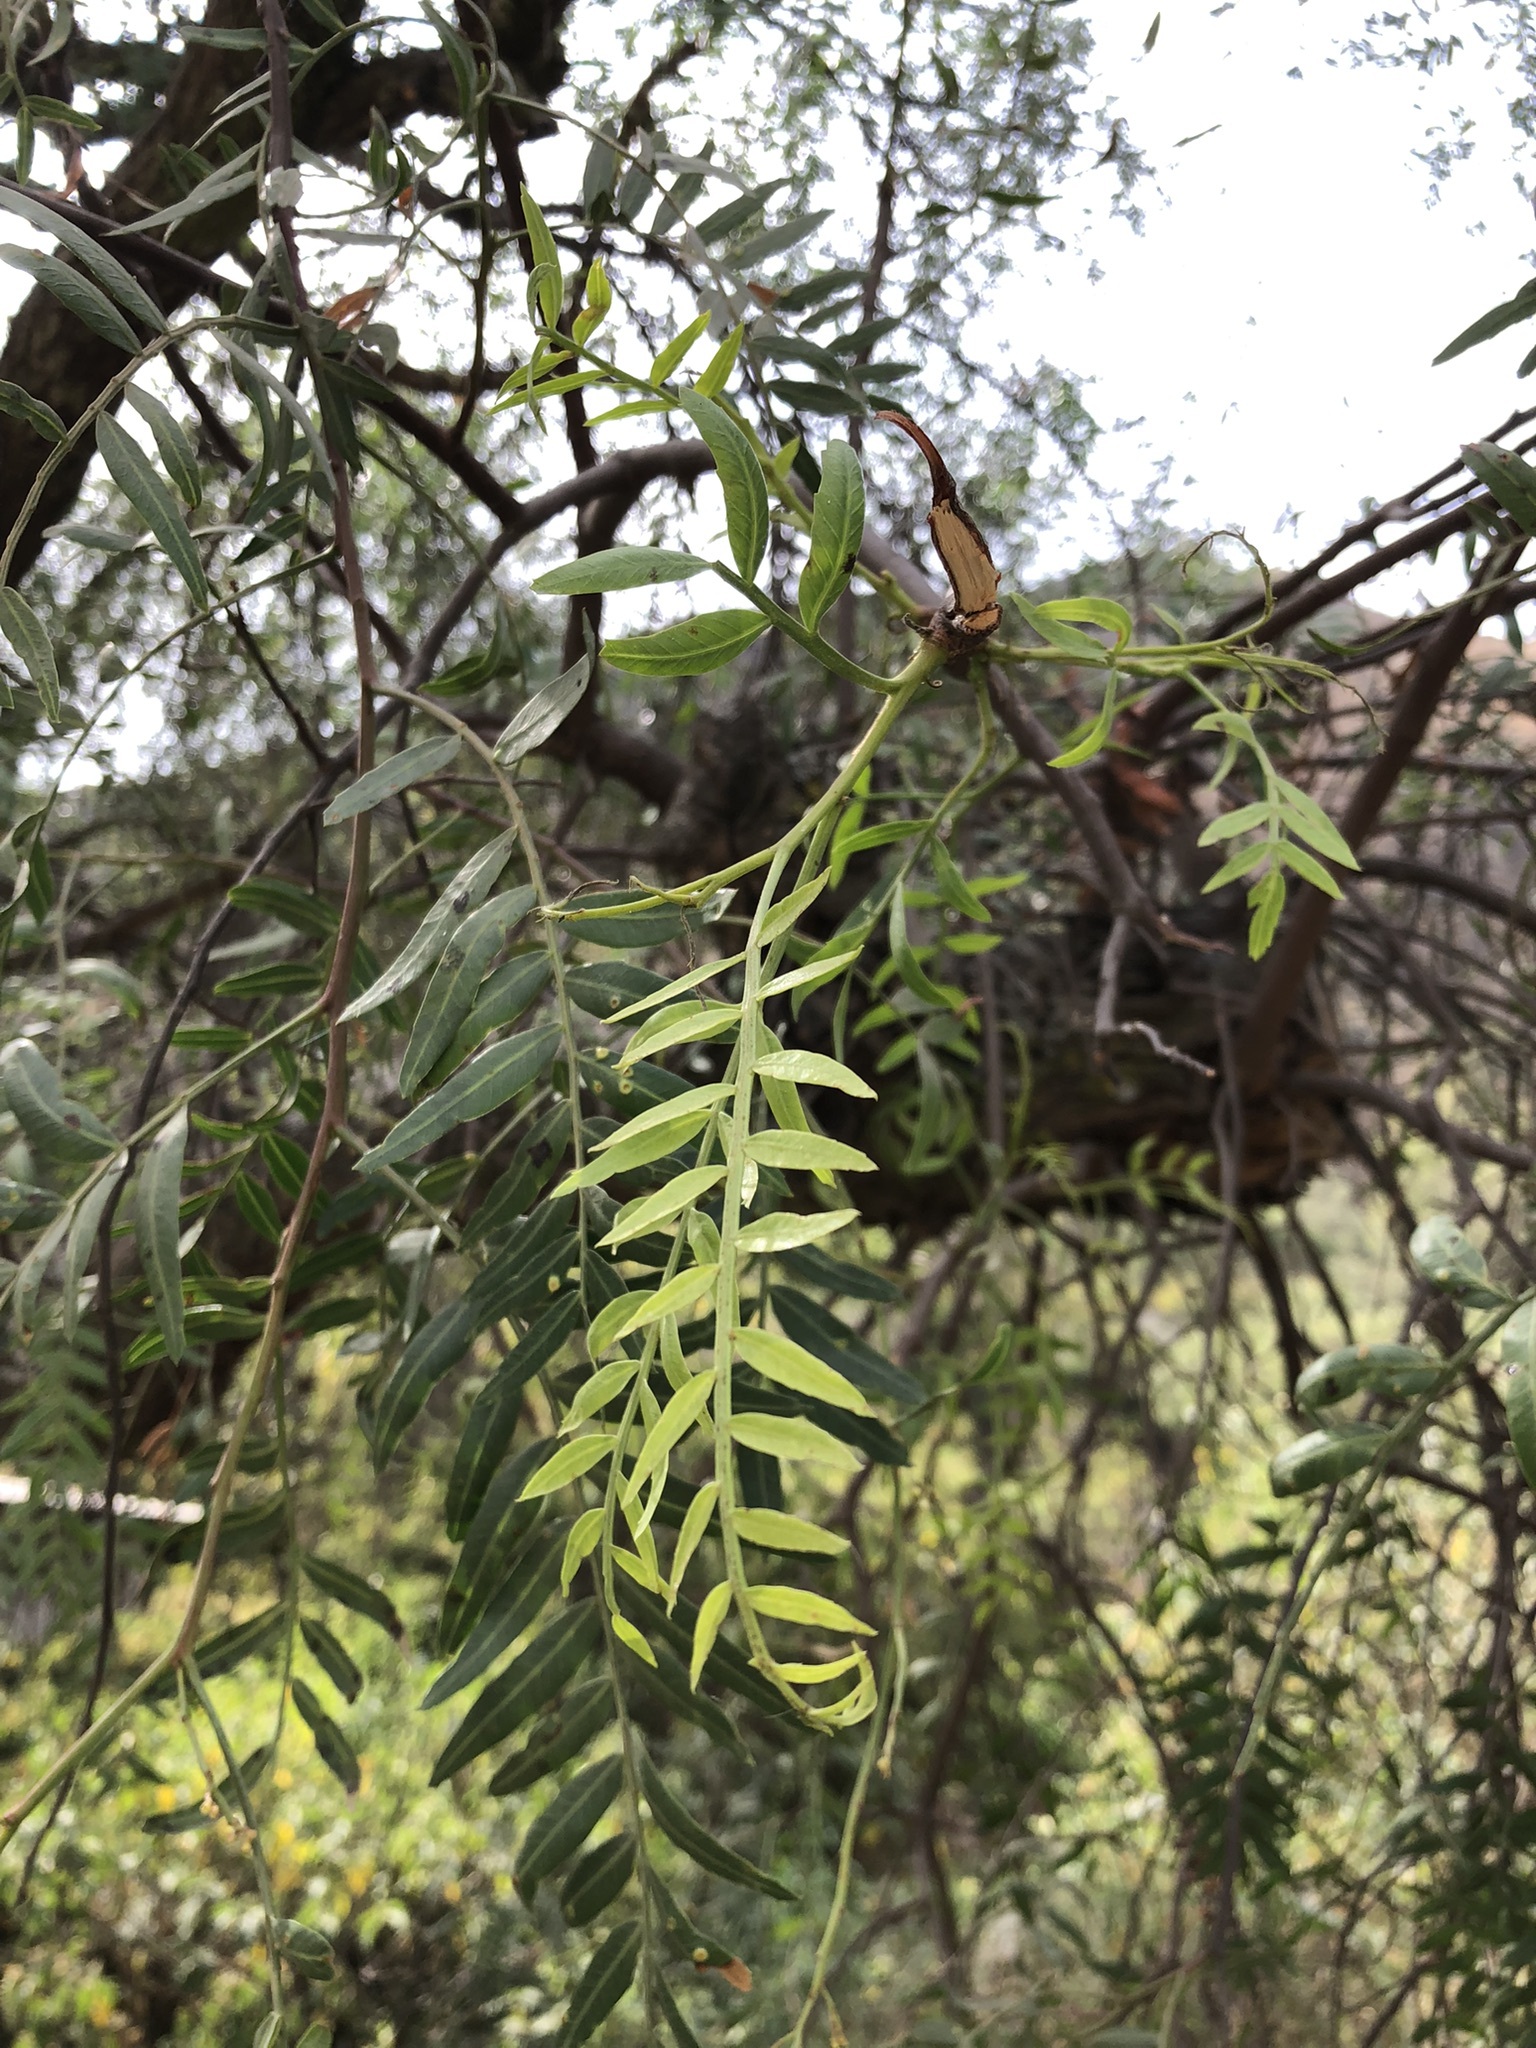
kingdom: Plantae
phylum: Tracheophyta
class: Magnoliopsida
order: Sapindales
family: Anacardiaceae
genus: Schinus
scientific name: Schinus molle
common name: Peruvian peppertree
